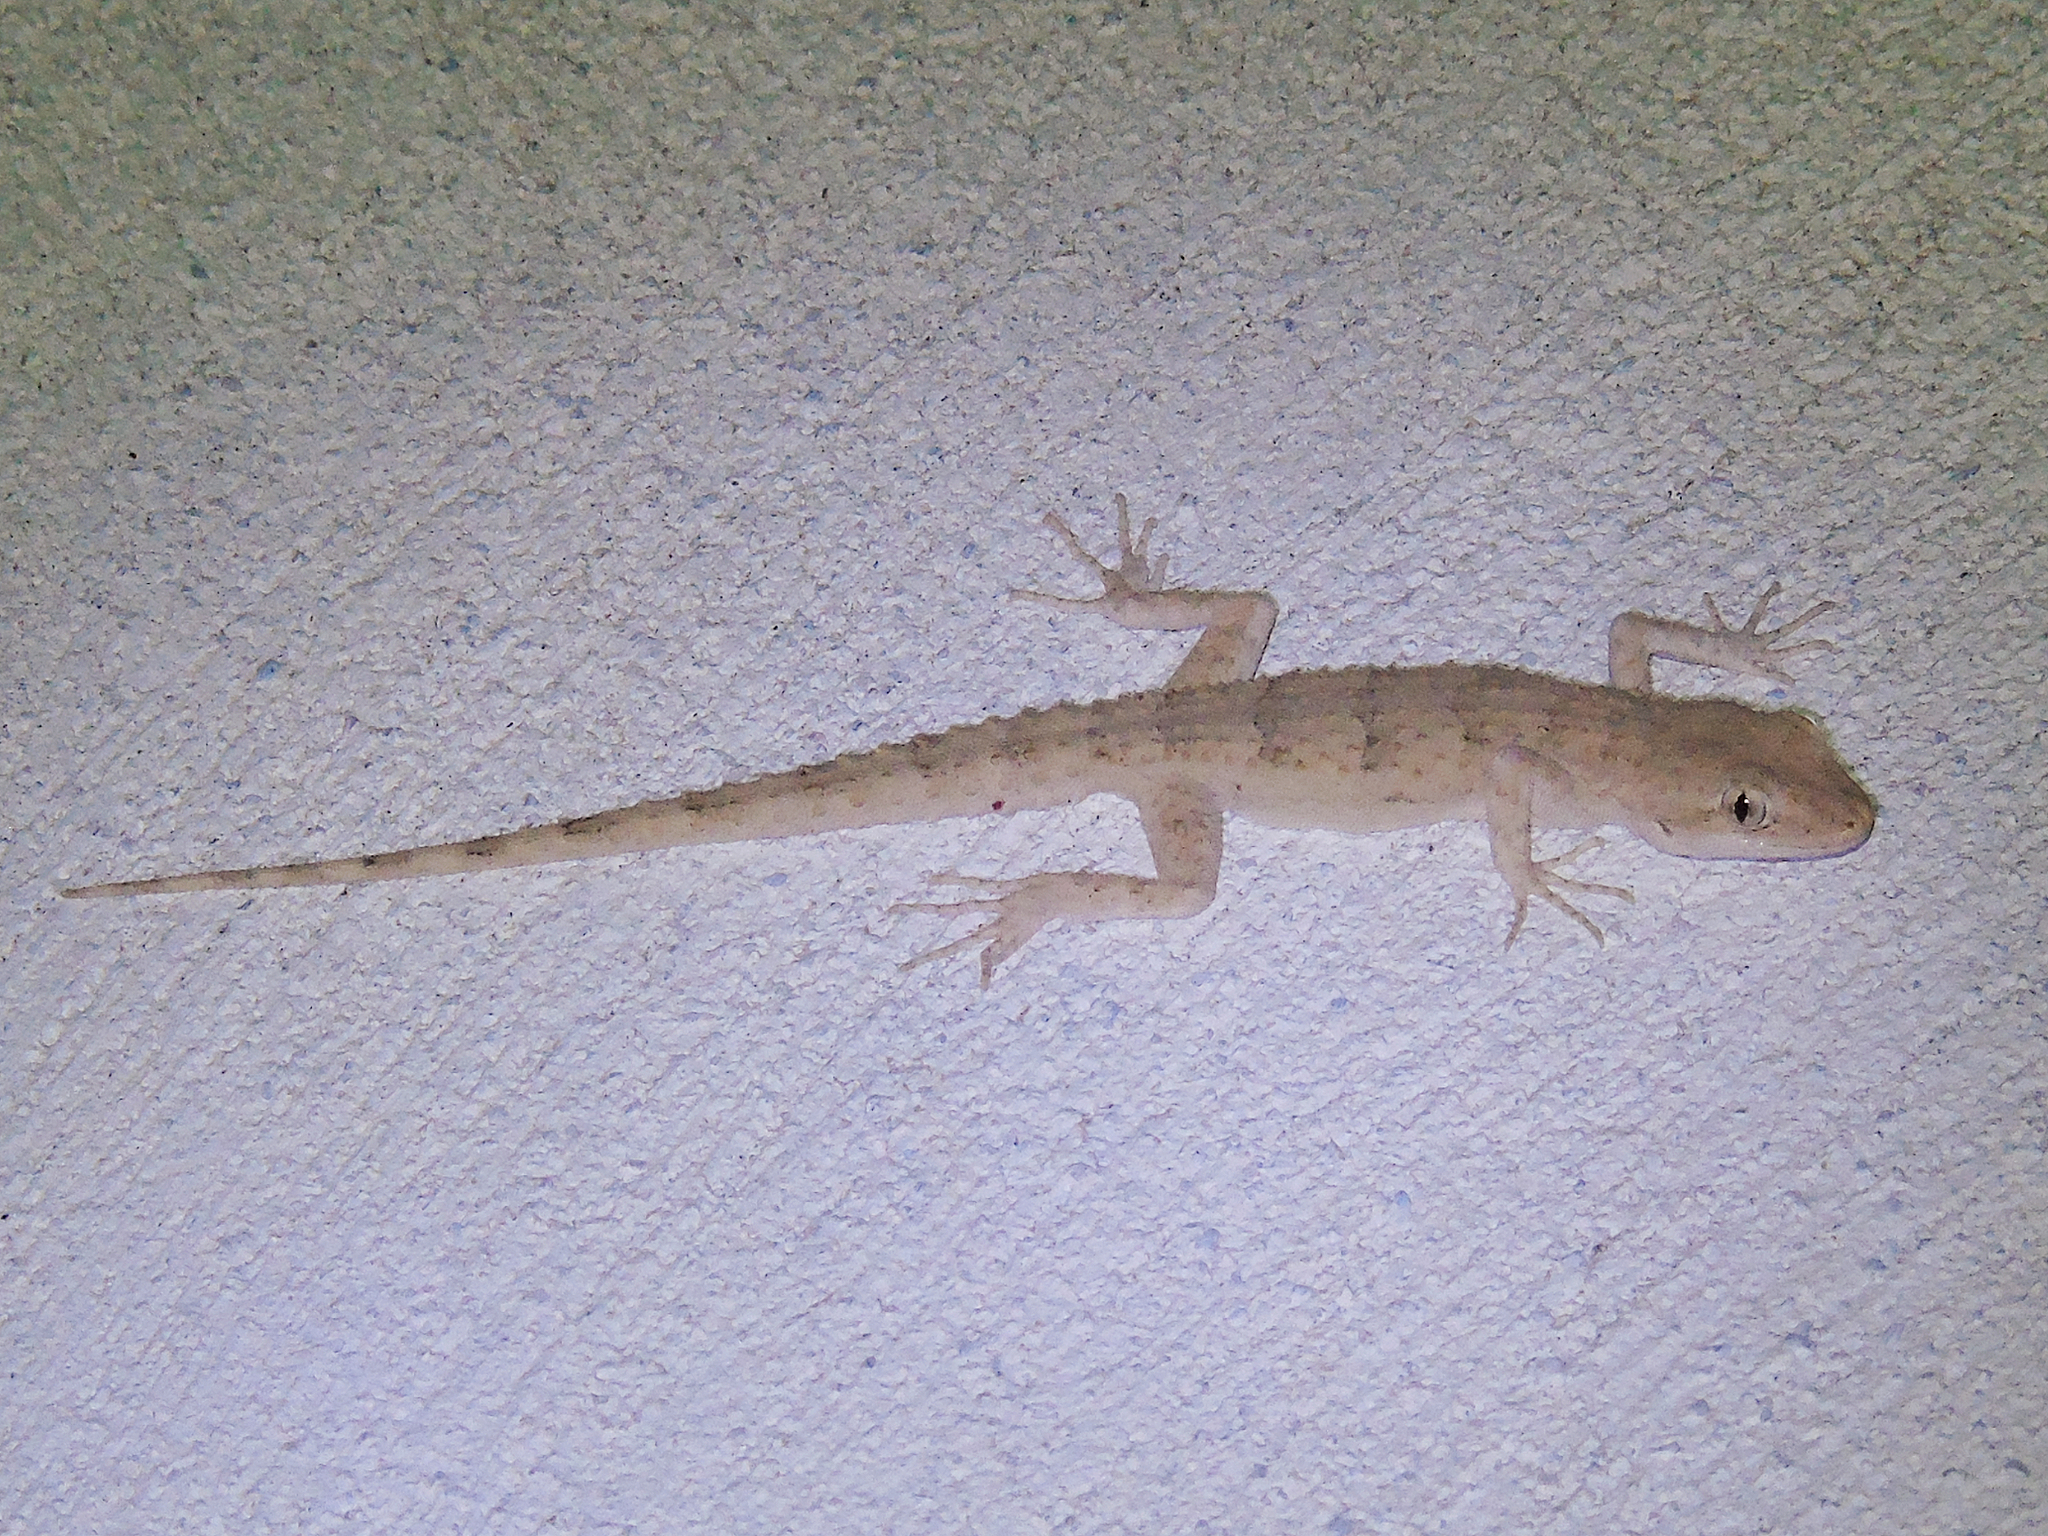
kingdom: Animalia
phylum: Chordata
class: Squamata
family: Gekkonidae
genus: Mediodactylus
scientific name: Mediodactylus russowii
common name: Grey thin-toed gecko
